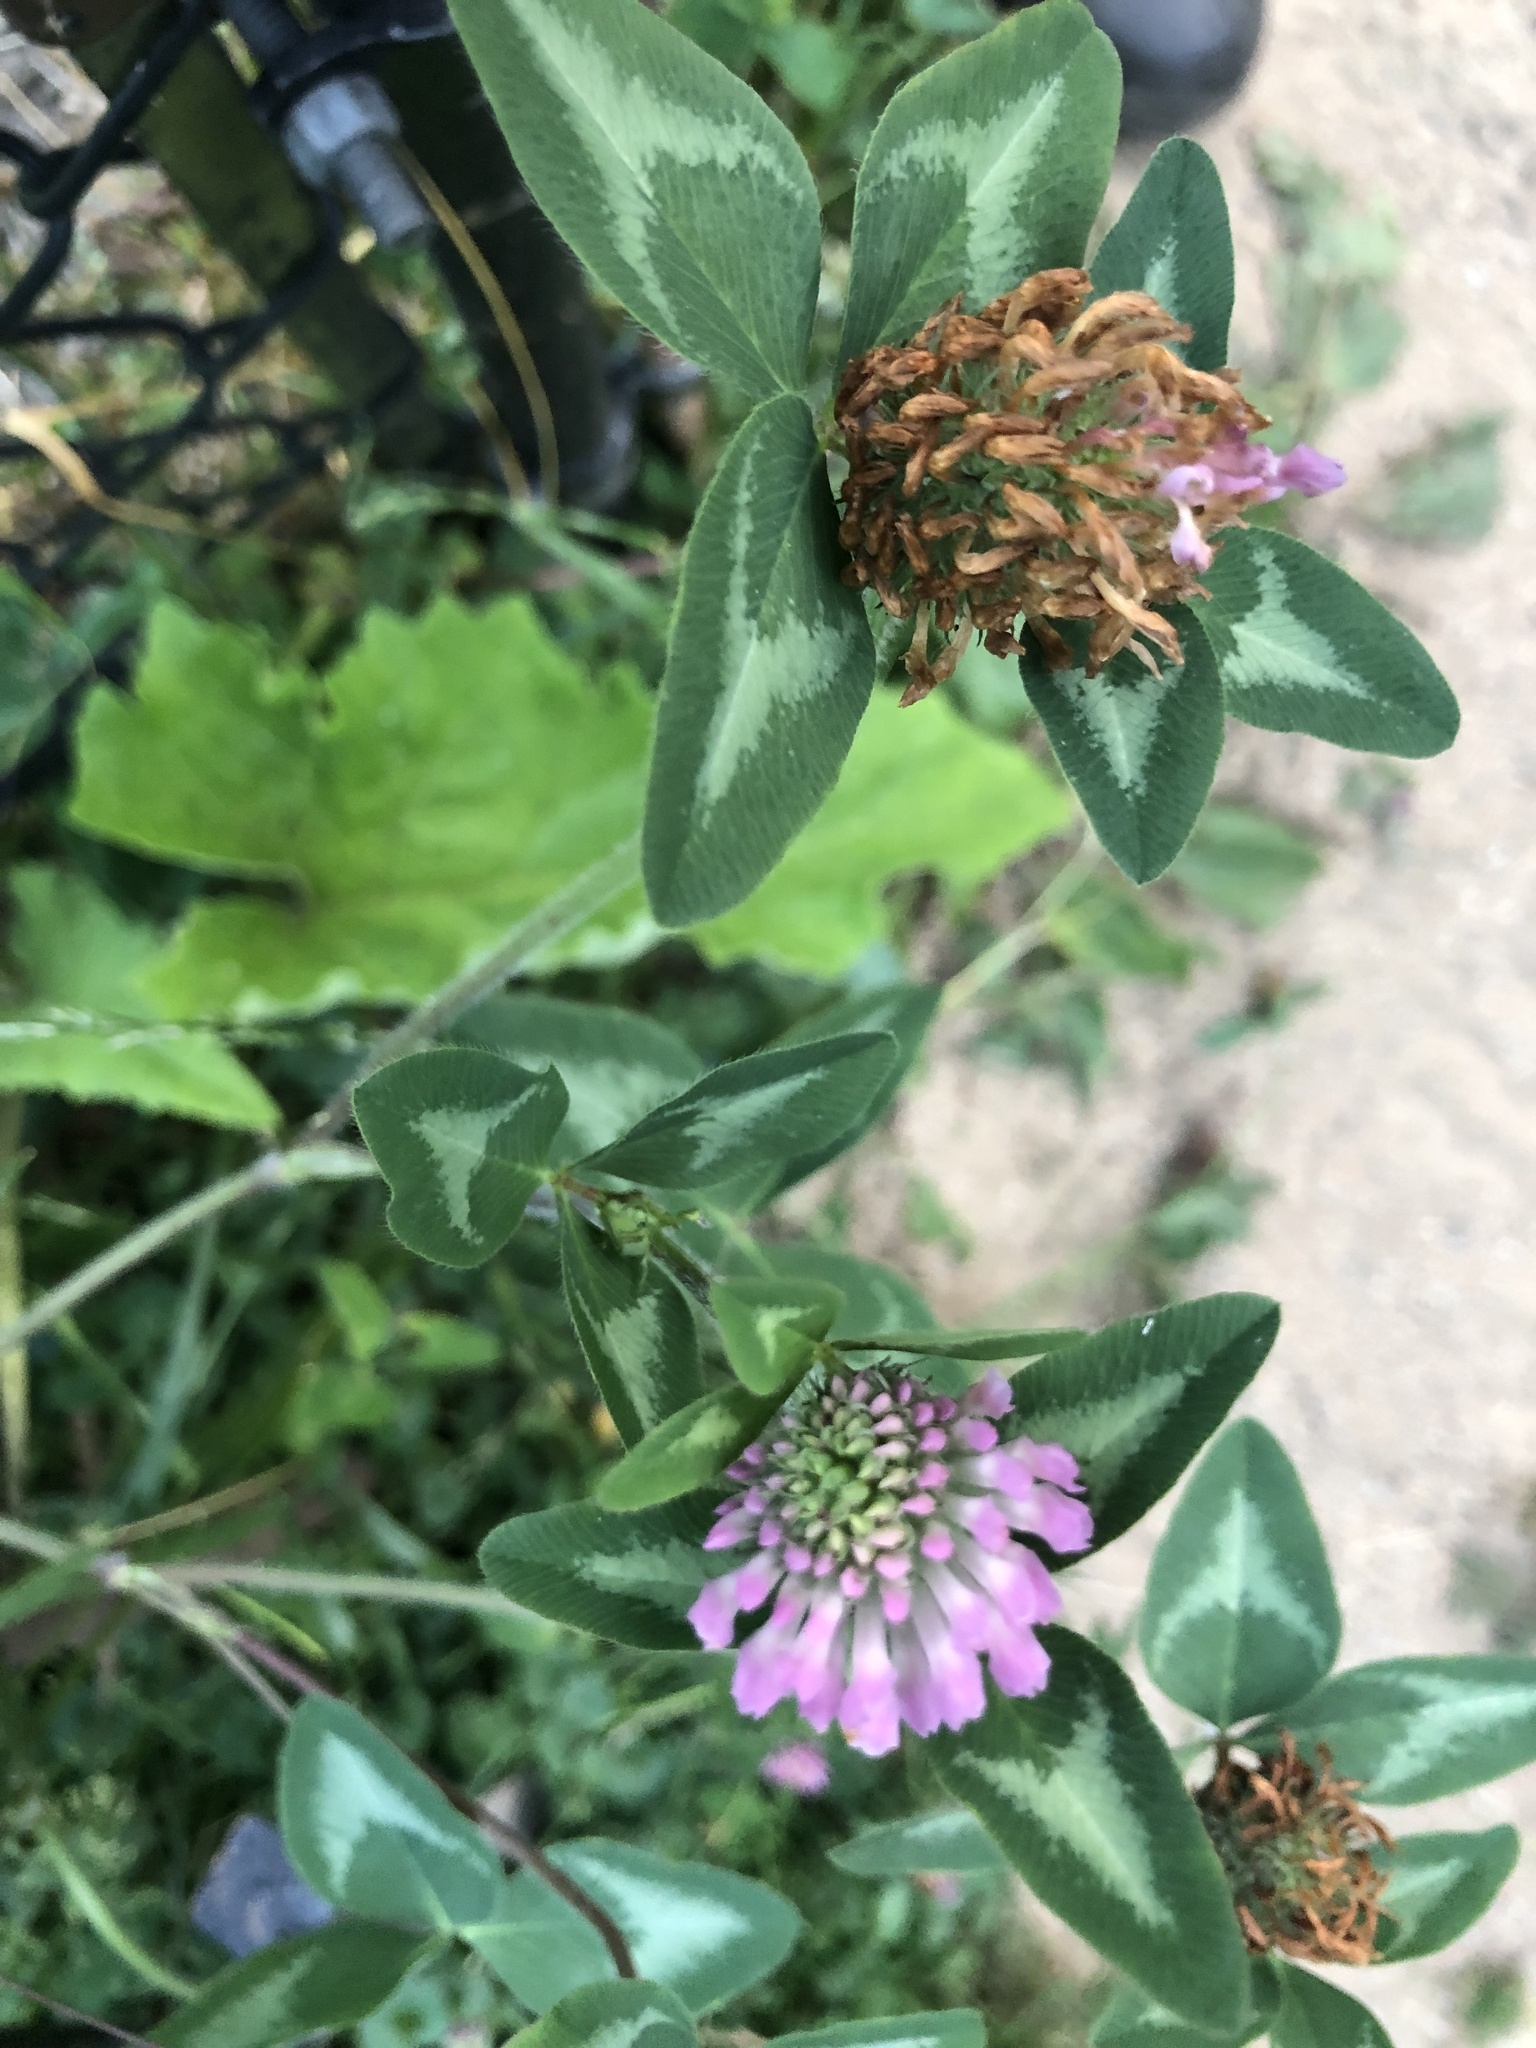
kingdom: Plantae
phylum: Tracheophyta
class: Magnoliopsida
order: Fabales
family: Fabaceae
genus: Trifolium
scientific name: Trifolium pratense
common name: Red clover
